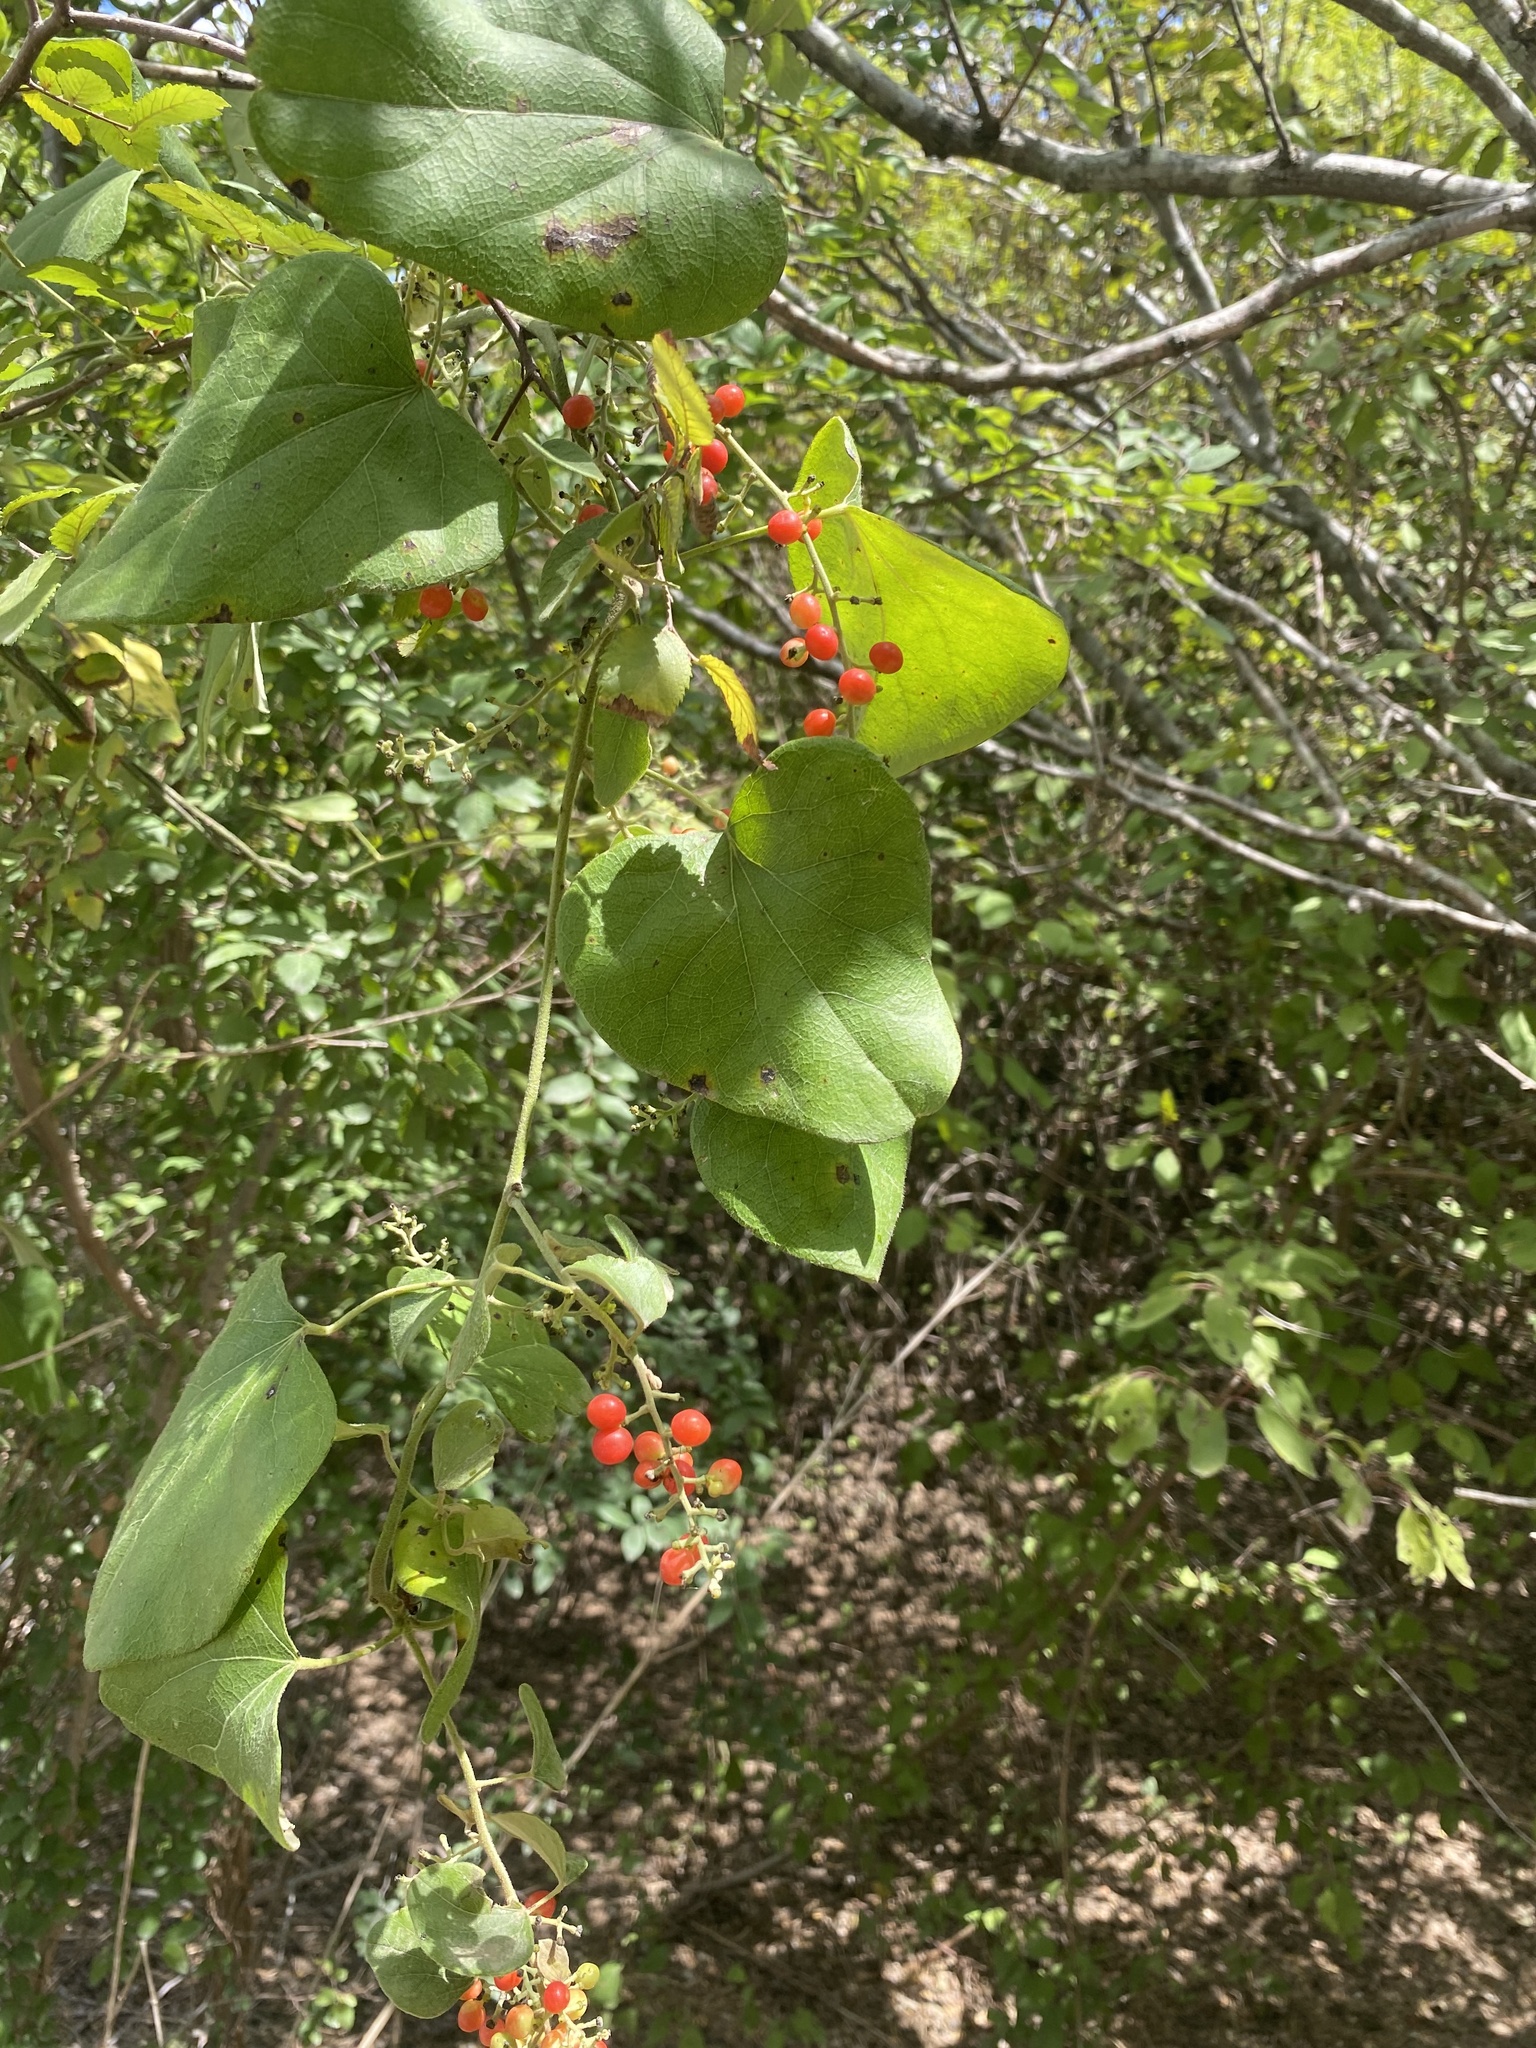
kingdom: Plantae
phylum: Tracheophyta
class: Magnoliopsida
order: Ranunculales
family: Menispermaceae
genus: Cocculus
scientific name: Cocculus carolinus
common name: Carolina moonseed
